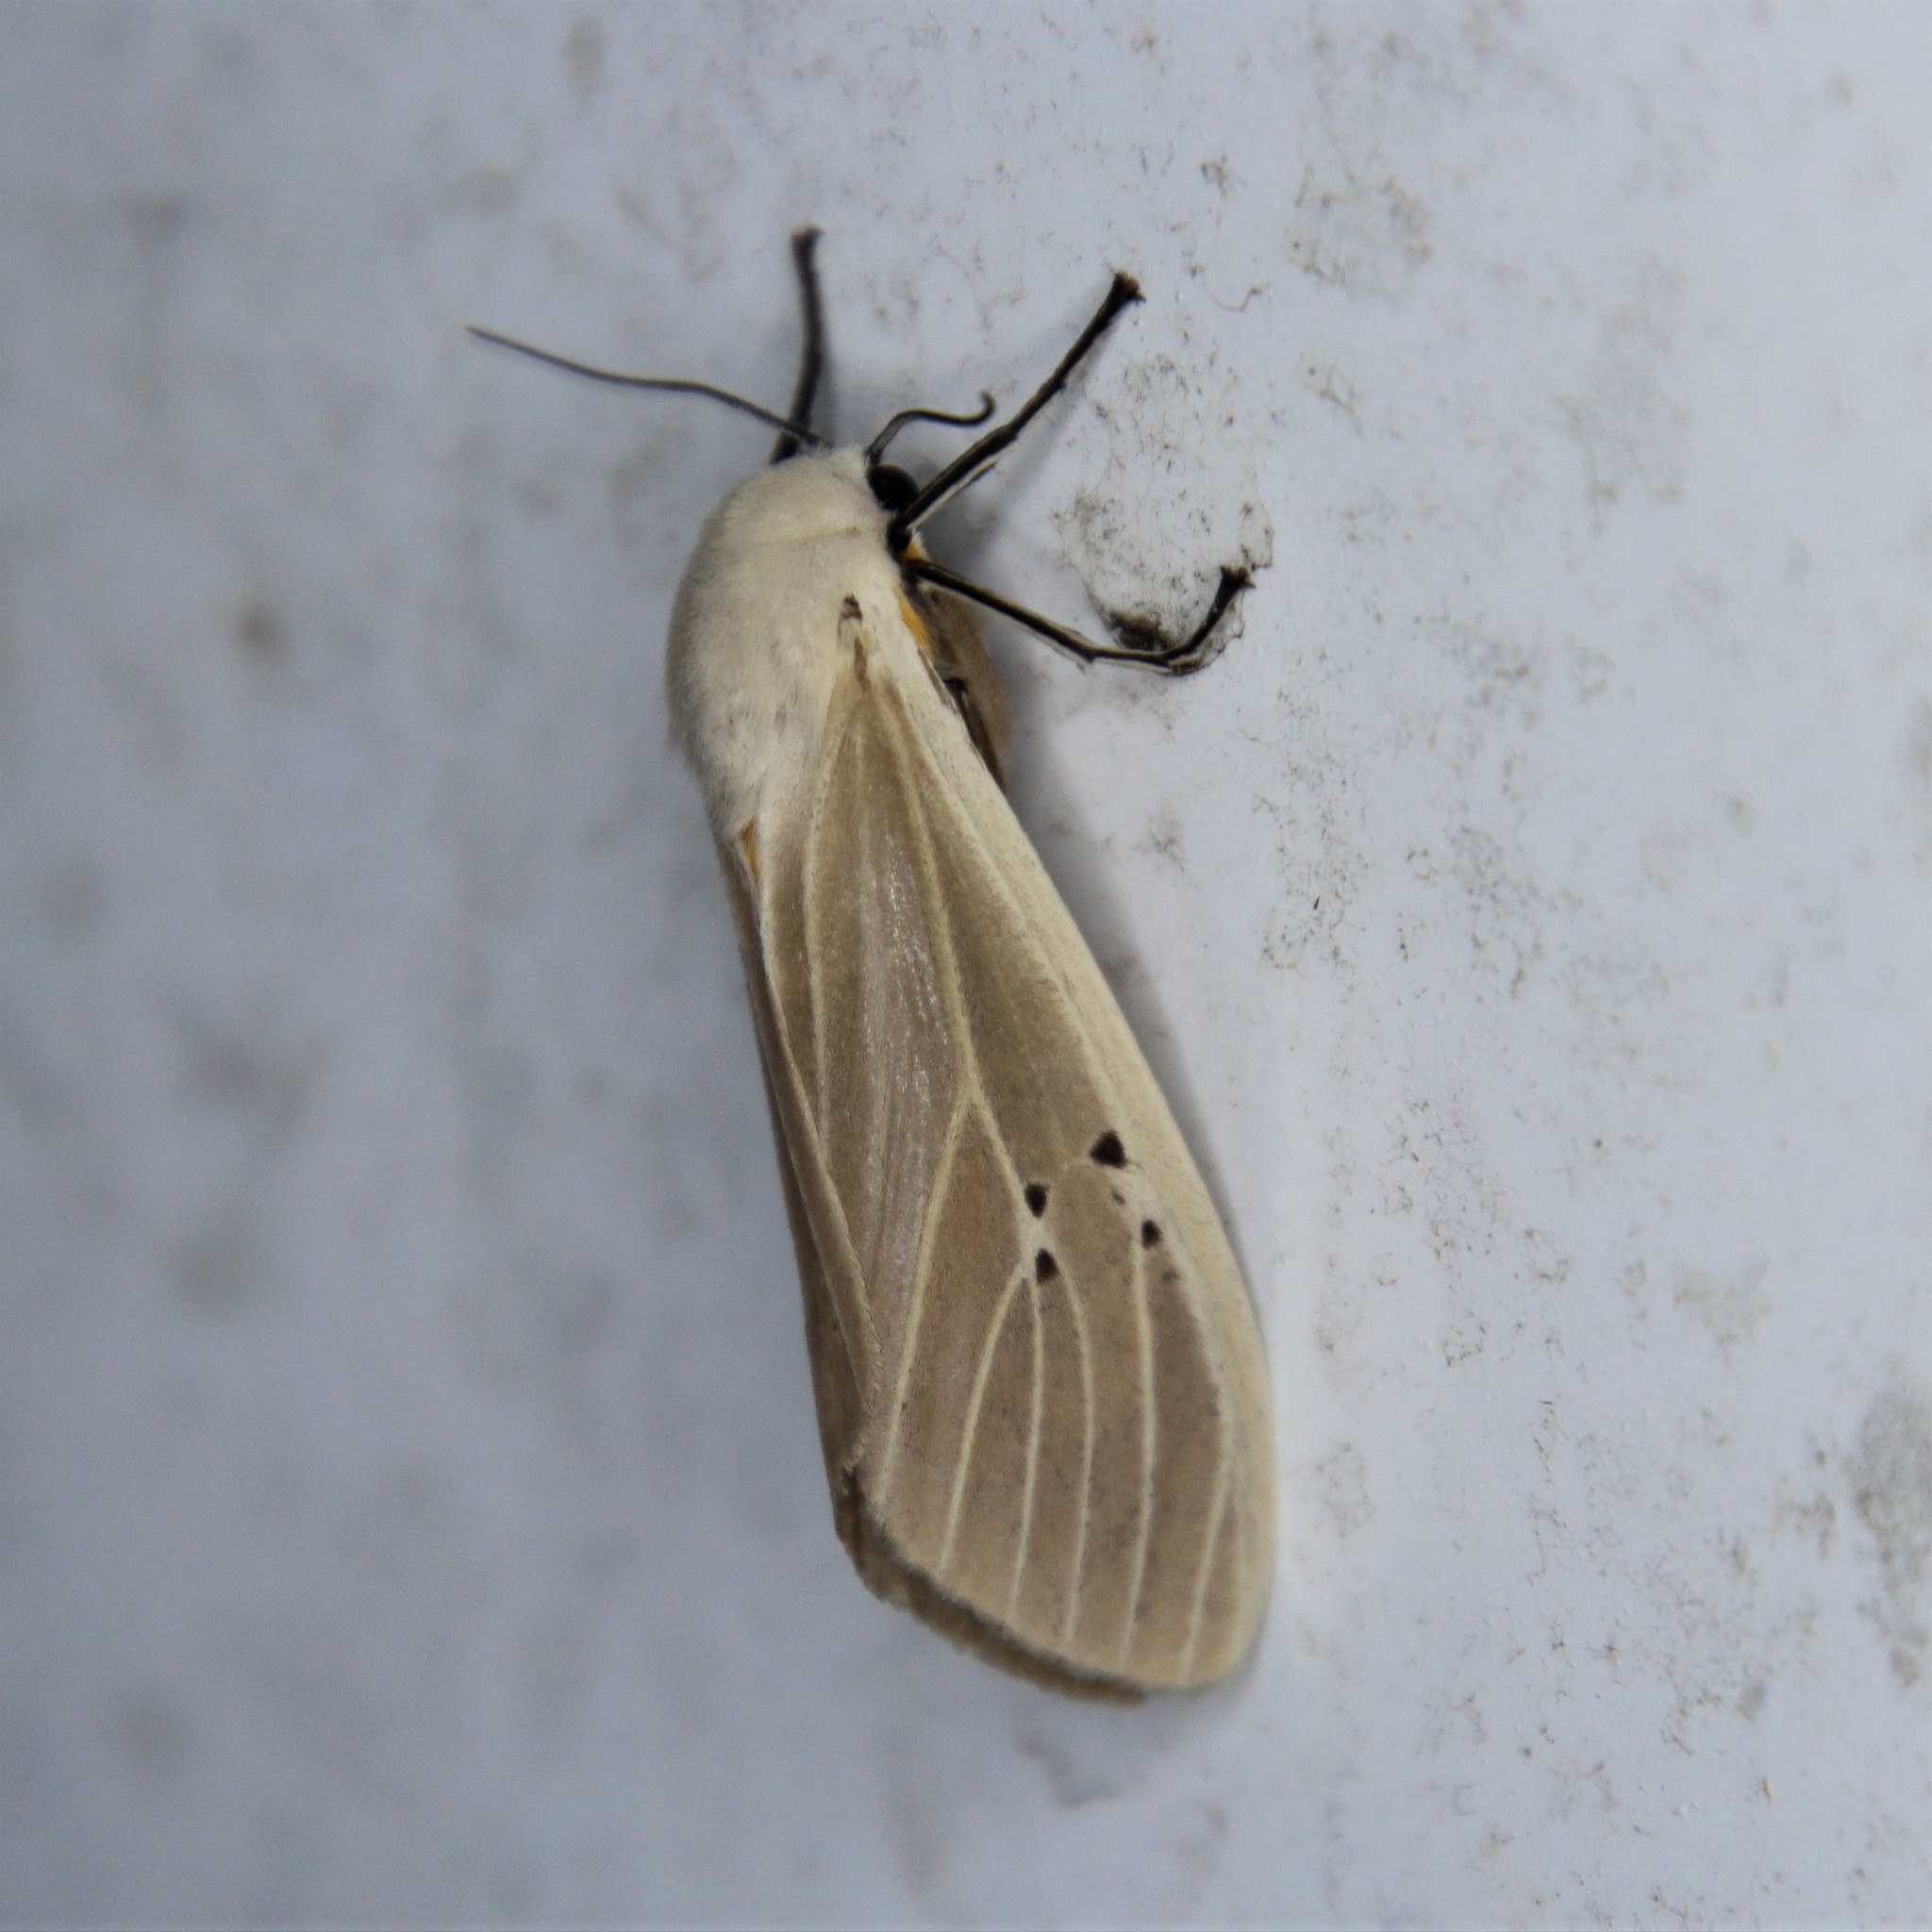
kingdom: Animalia
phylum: Arthropoda
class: Insecta
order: Lepidoptera
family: Erebidae
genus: Creatonotos
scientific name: Creatonotos transiens
